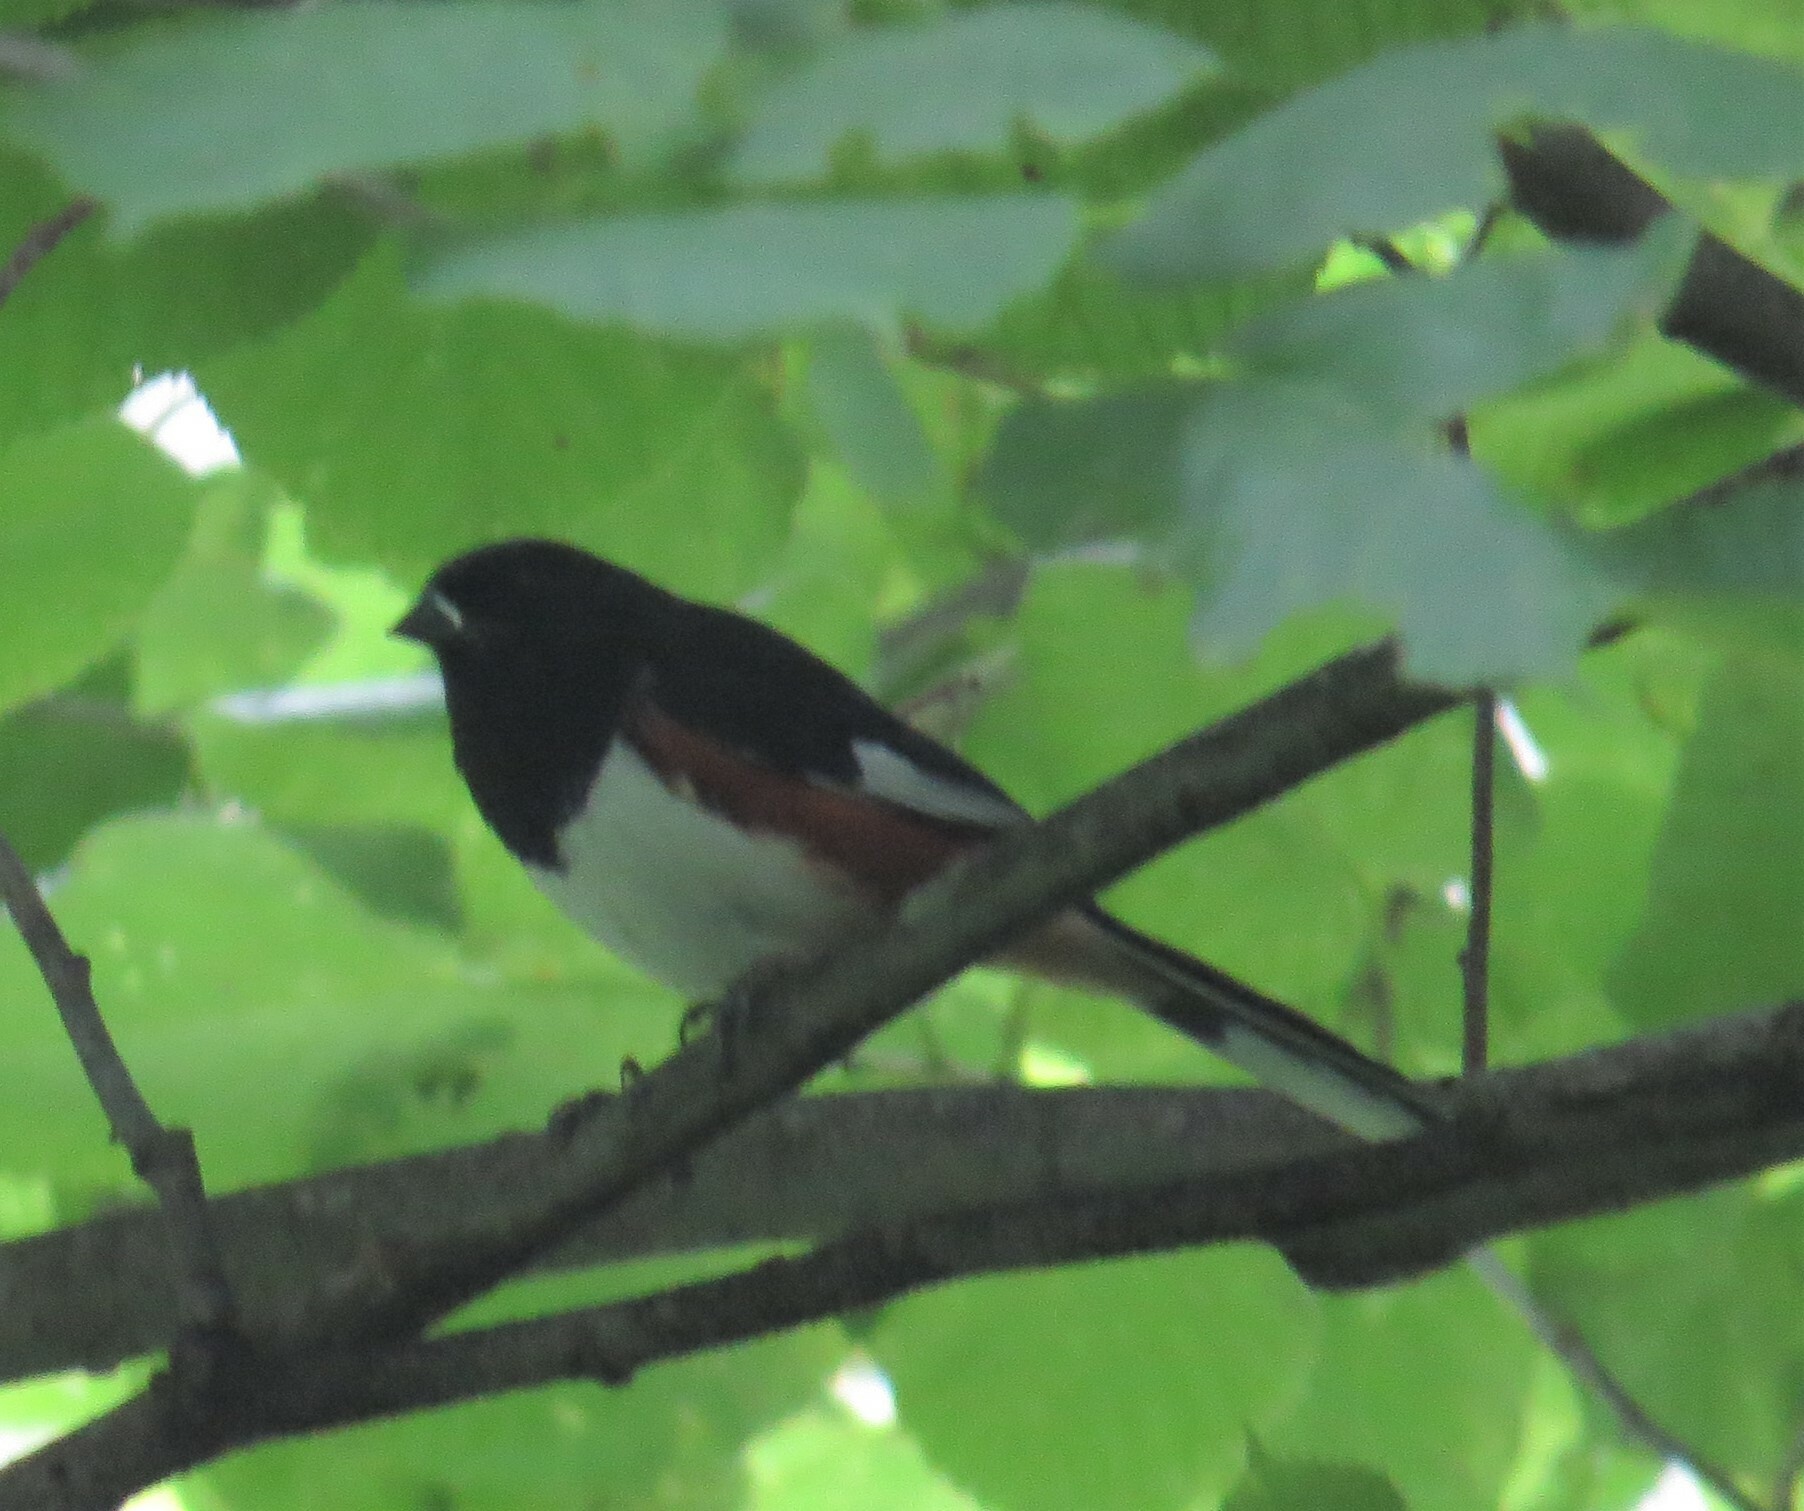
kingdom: Animalia
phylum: Chordata
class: Aves
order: Passeriformes
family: Passerellidae
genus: Pipilo
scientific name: Pipilo erythrophthalmus
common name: Eastern towhee
